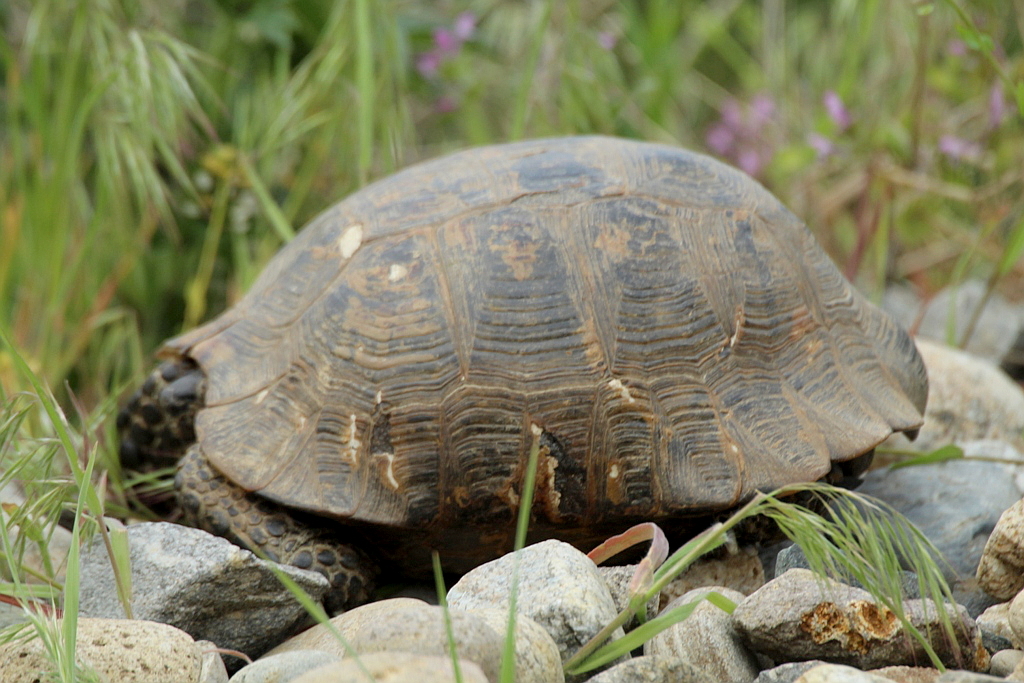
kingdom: Animalia
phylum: Chordata
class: Testudines
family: Testudinidae
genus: Testudo
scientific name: Testudo graeca
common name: Common tortoise
